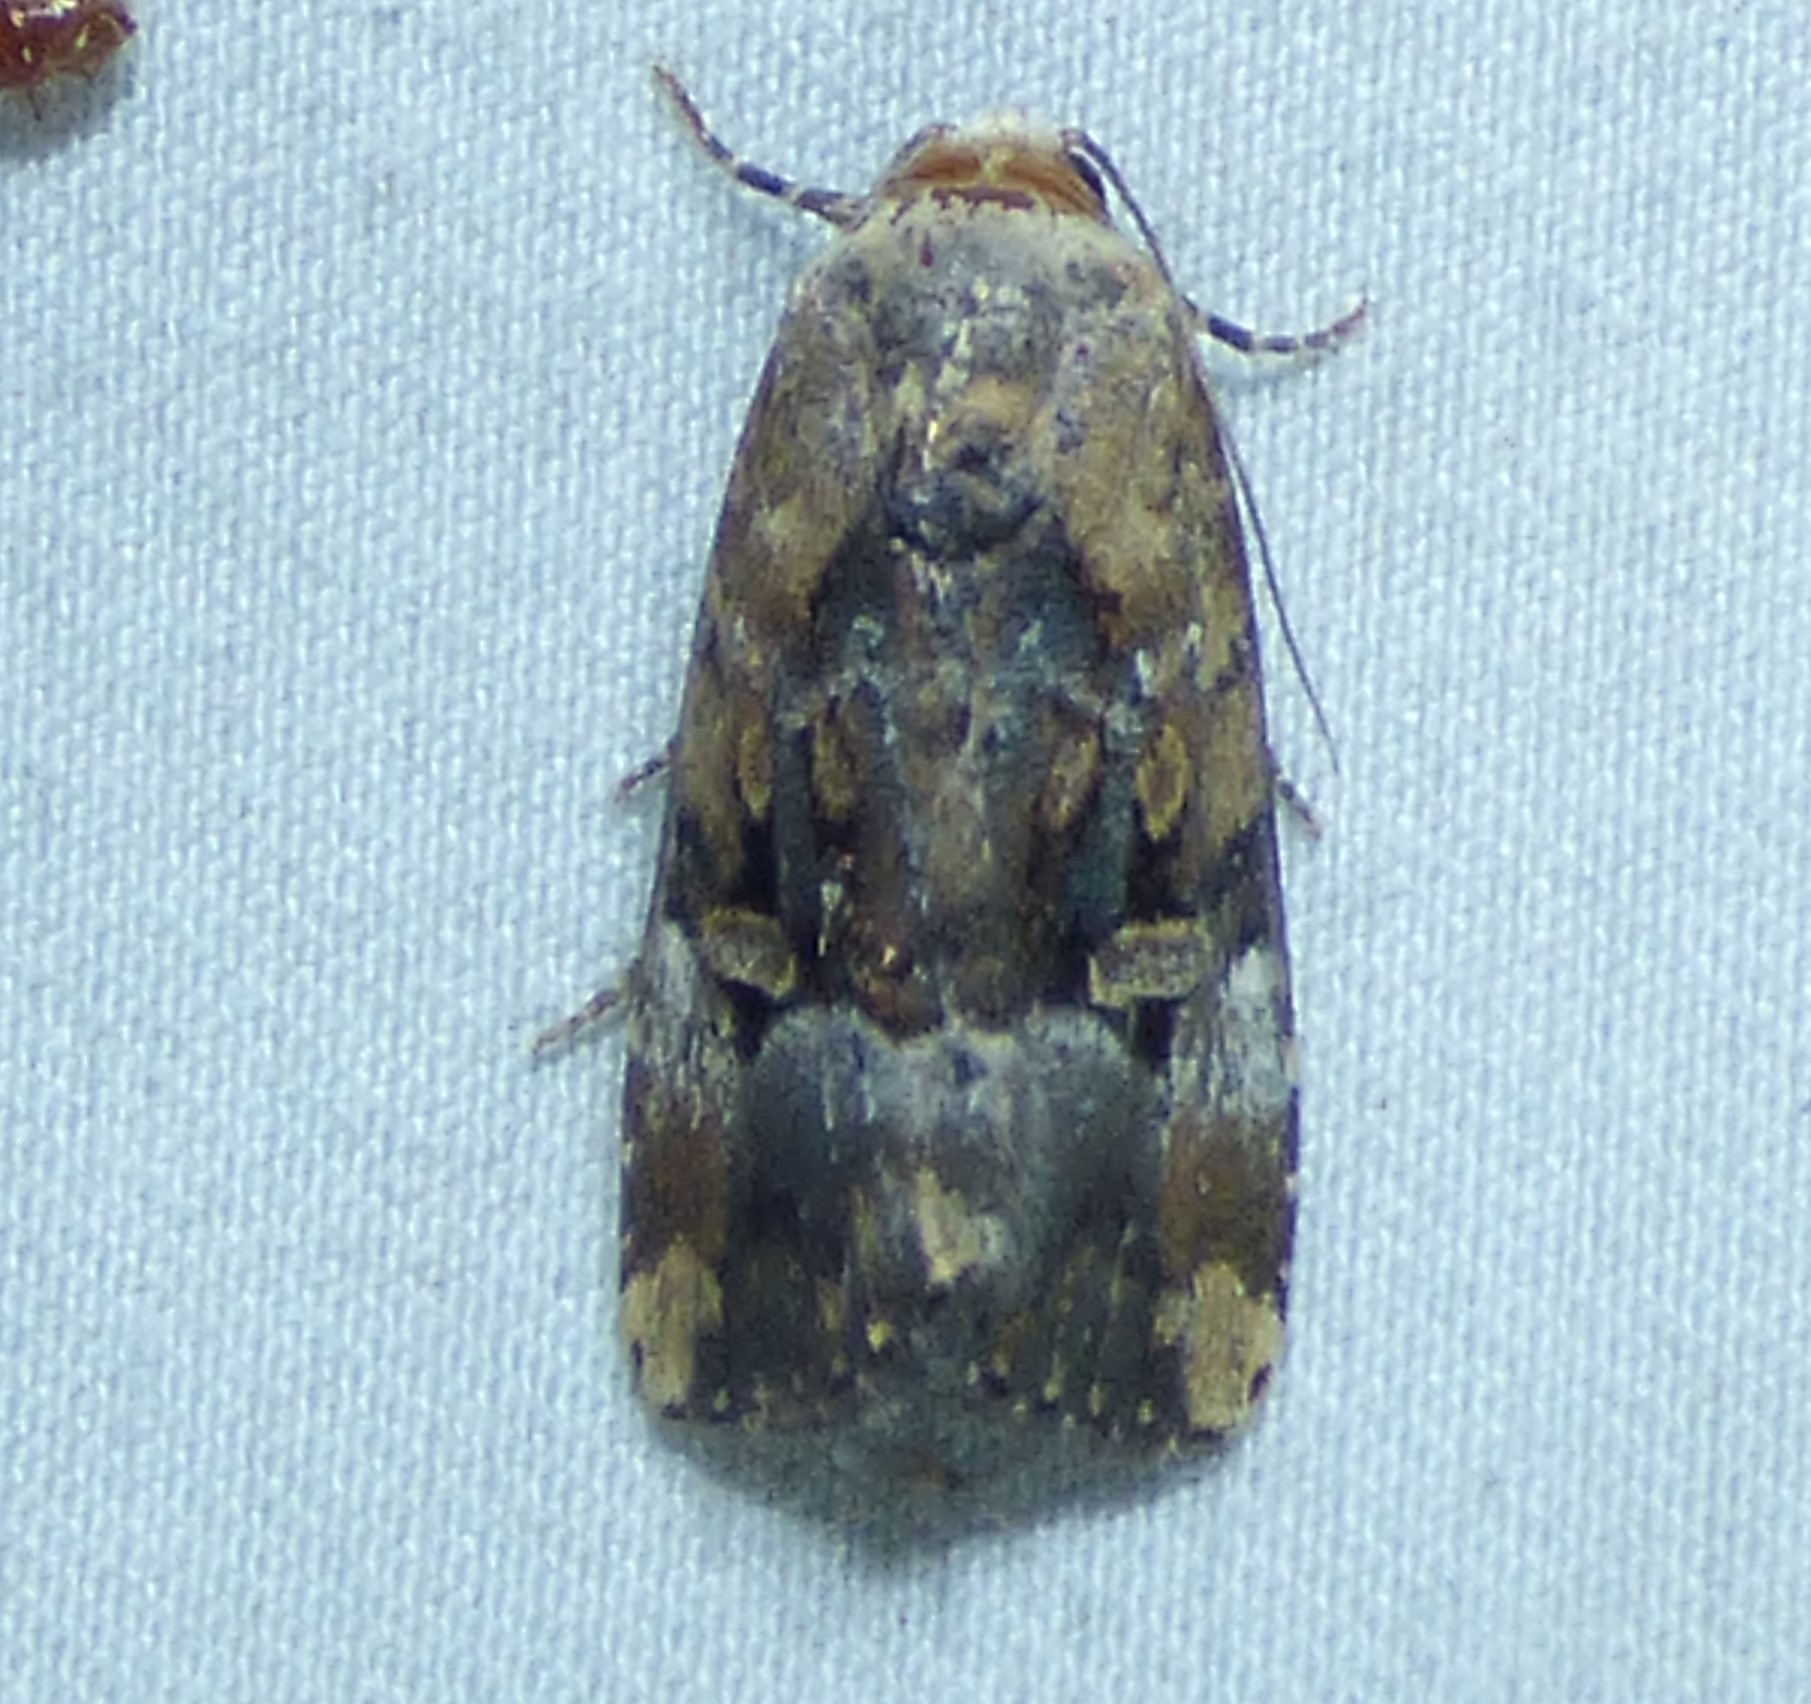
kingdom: Animalia
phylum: Arthropoda
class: Insecta
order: Lepidoptera
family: Noctuidae
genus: Elaphria
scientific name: Elaphria chalcedonia
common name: Chalcedony midget
